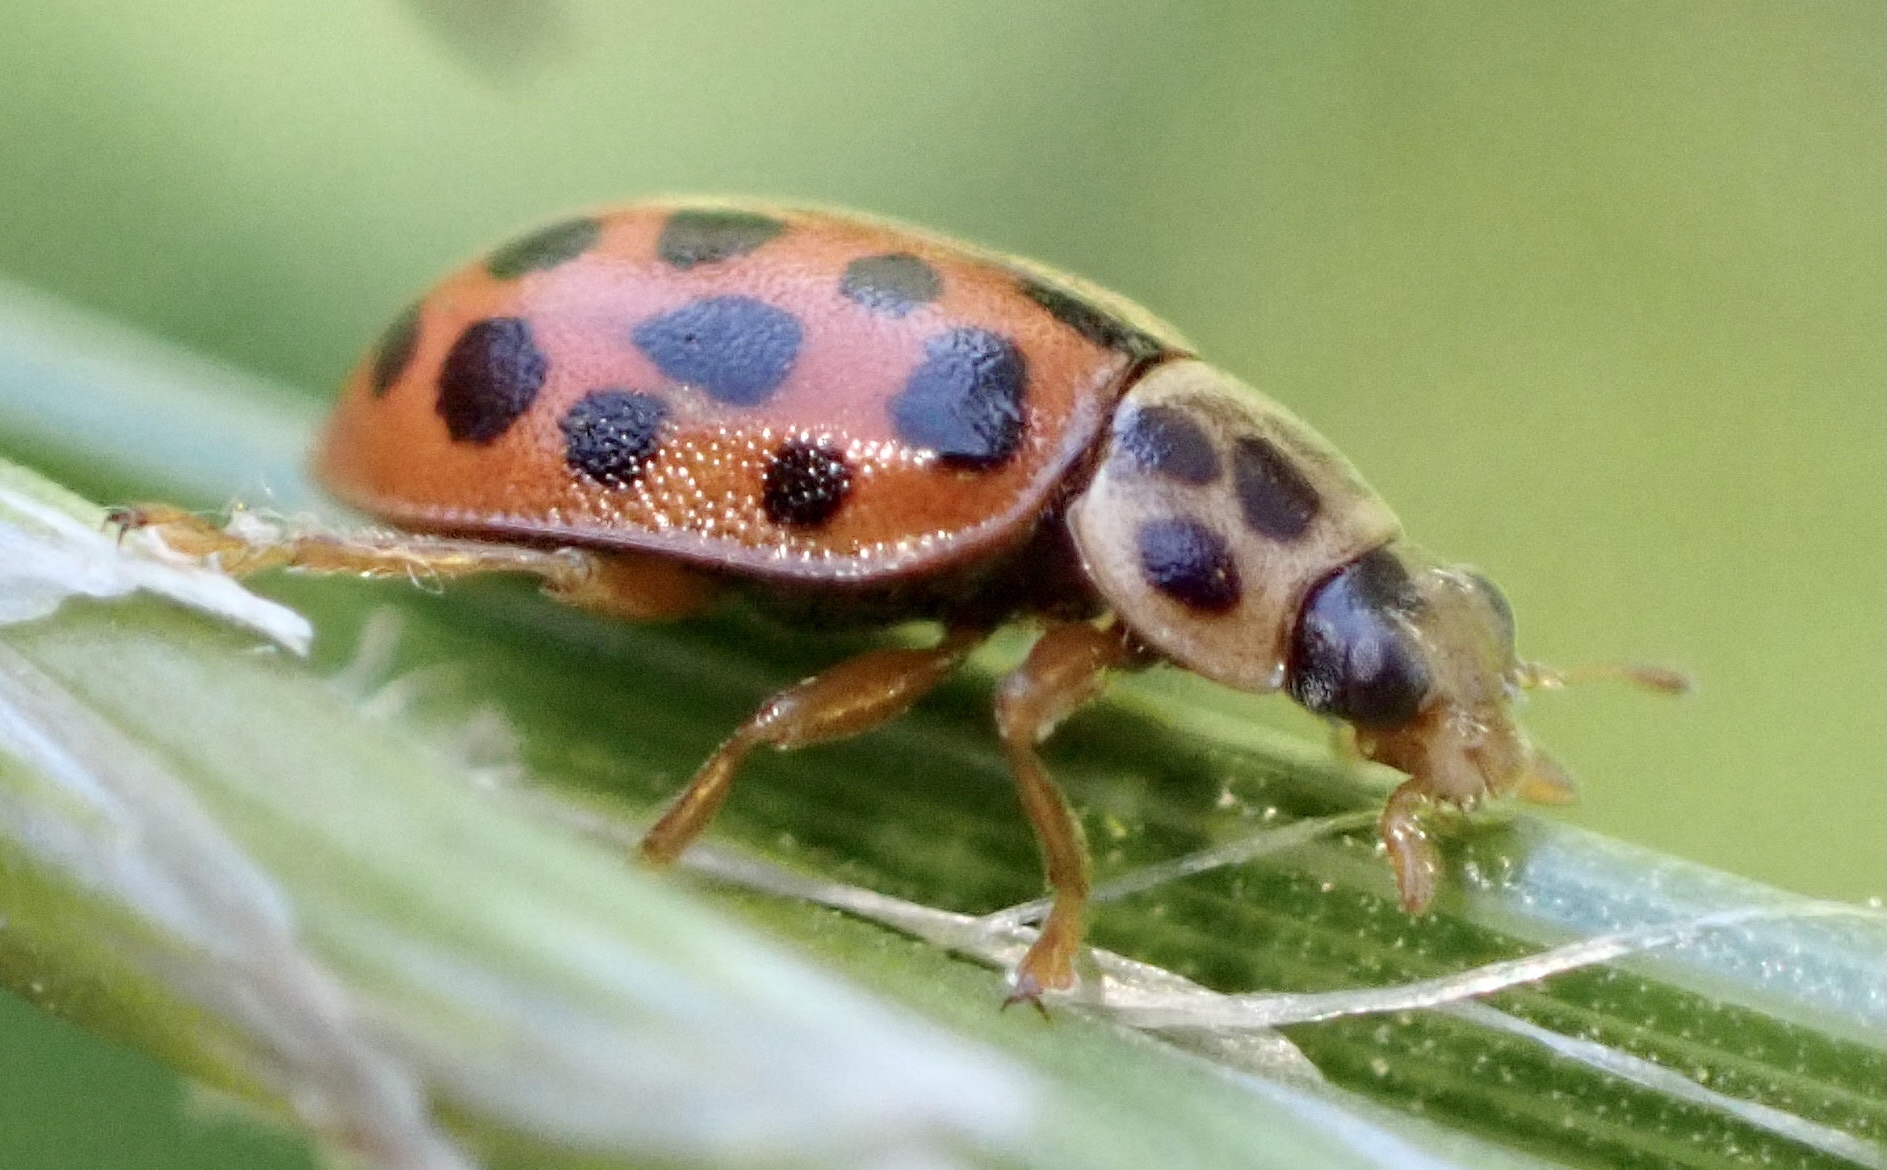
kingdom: Animalia
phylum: Arthropoda
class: Insecta
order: Coleoptera
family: Coccinellidae
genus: Anisosticta
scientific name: Anisosticta novemdecimpunctata
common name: Water ladybird
